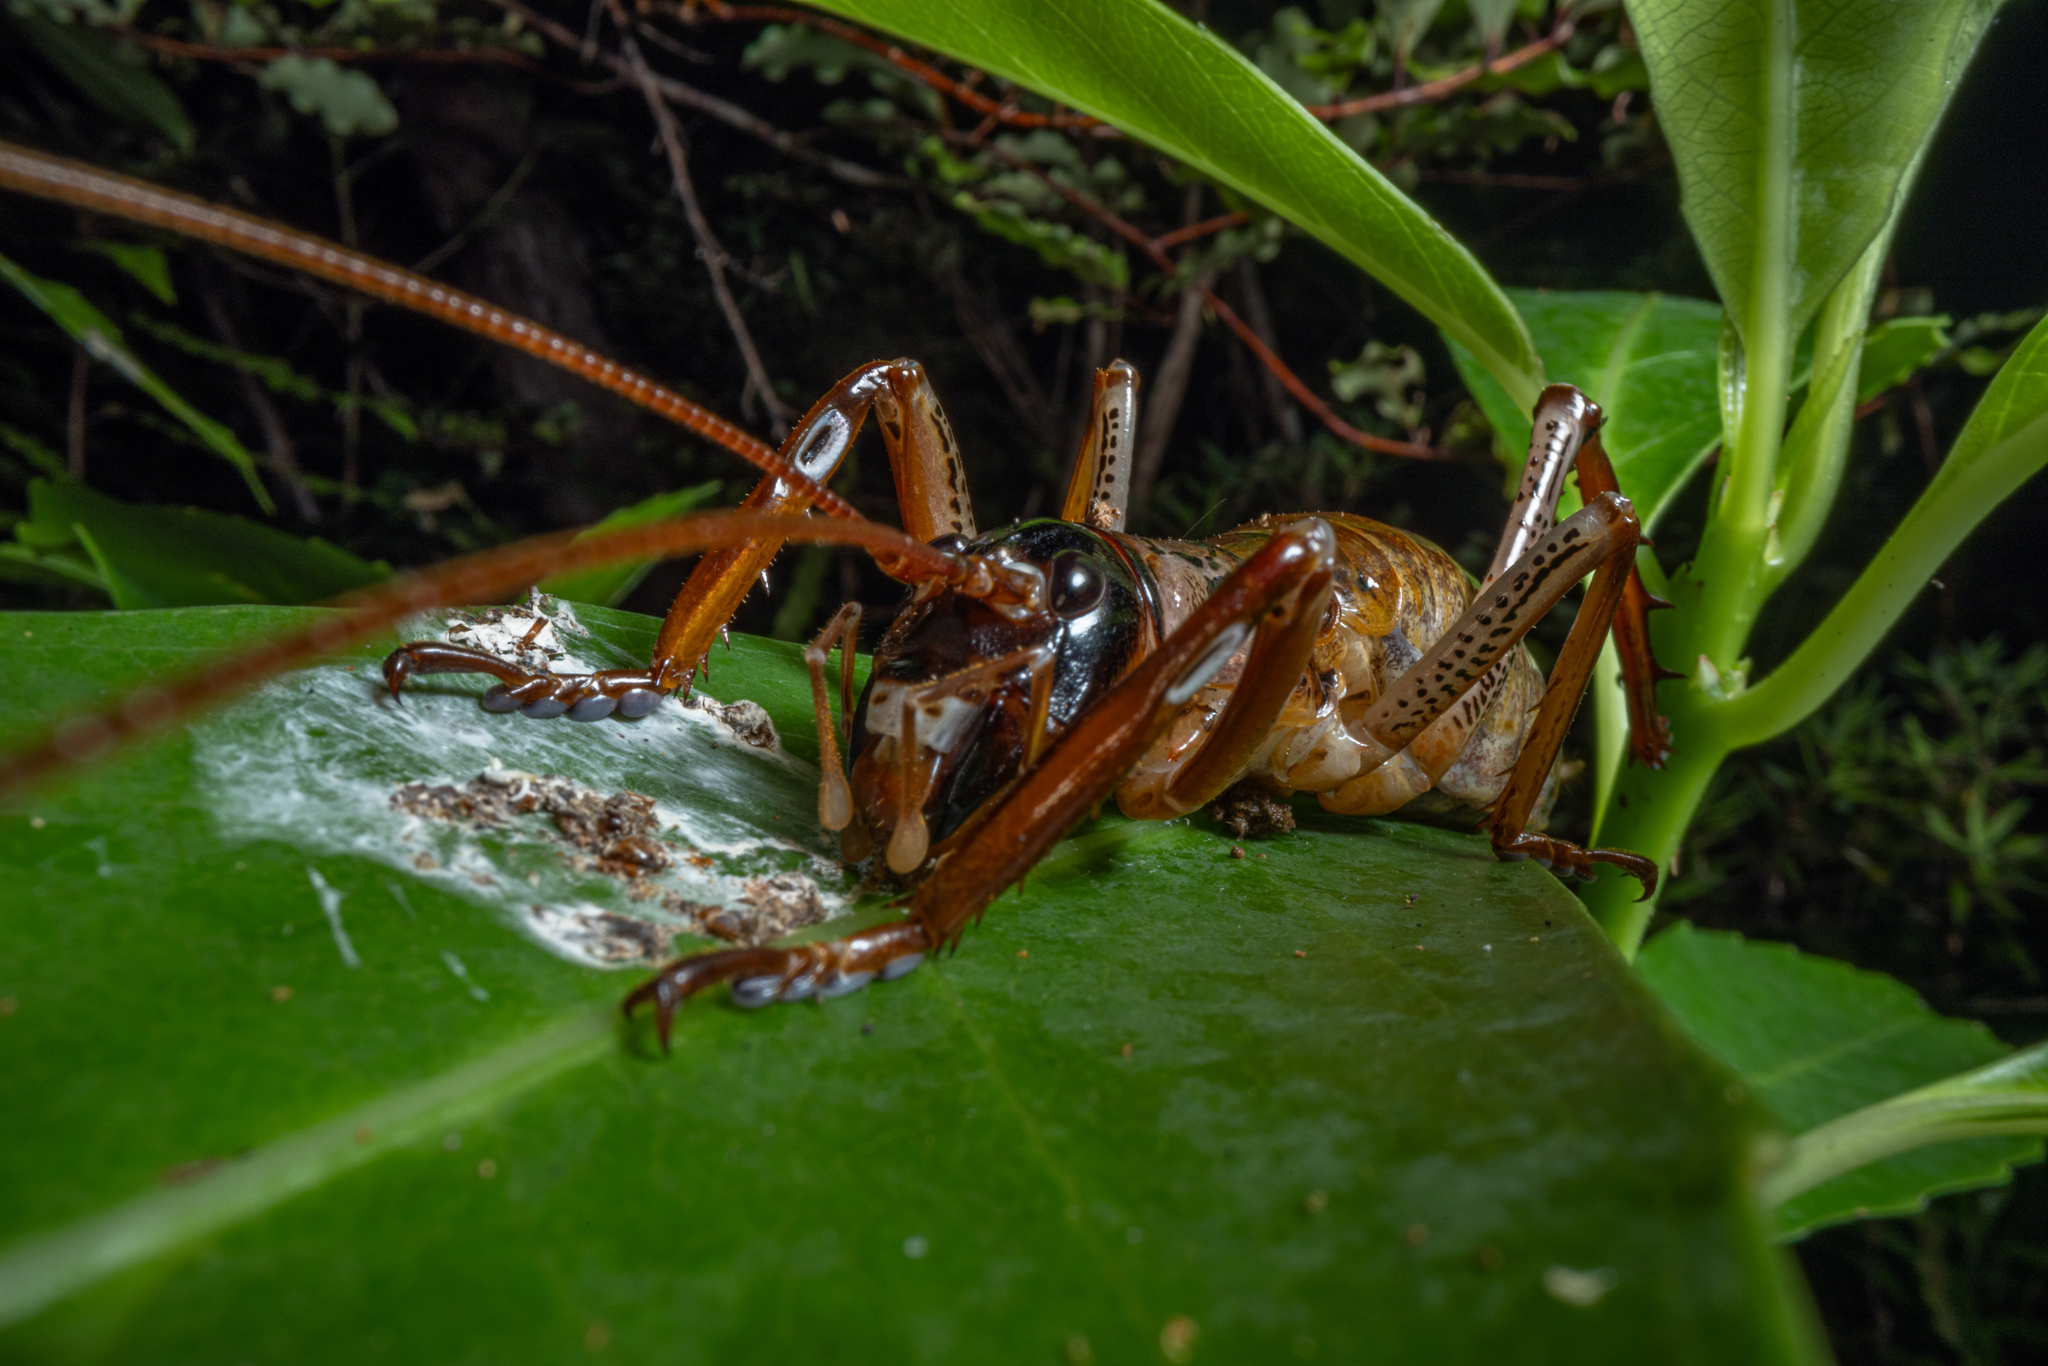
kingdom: Animalia
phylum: Arthropoda
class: Insecta
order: Orthoptera
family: Anostostomatidae
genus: Hemideina
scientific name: Hemideina thoracica
